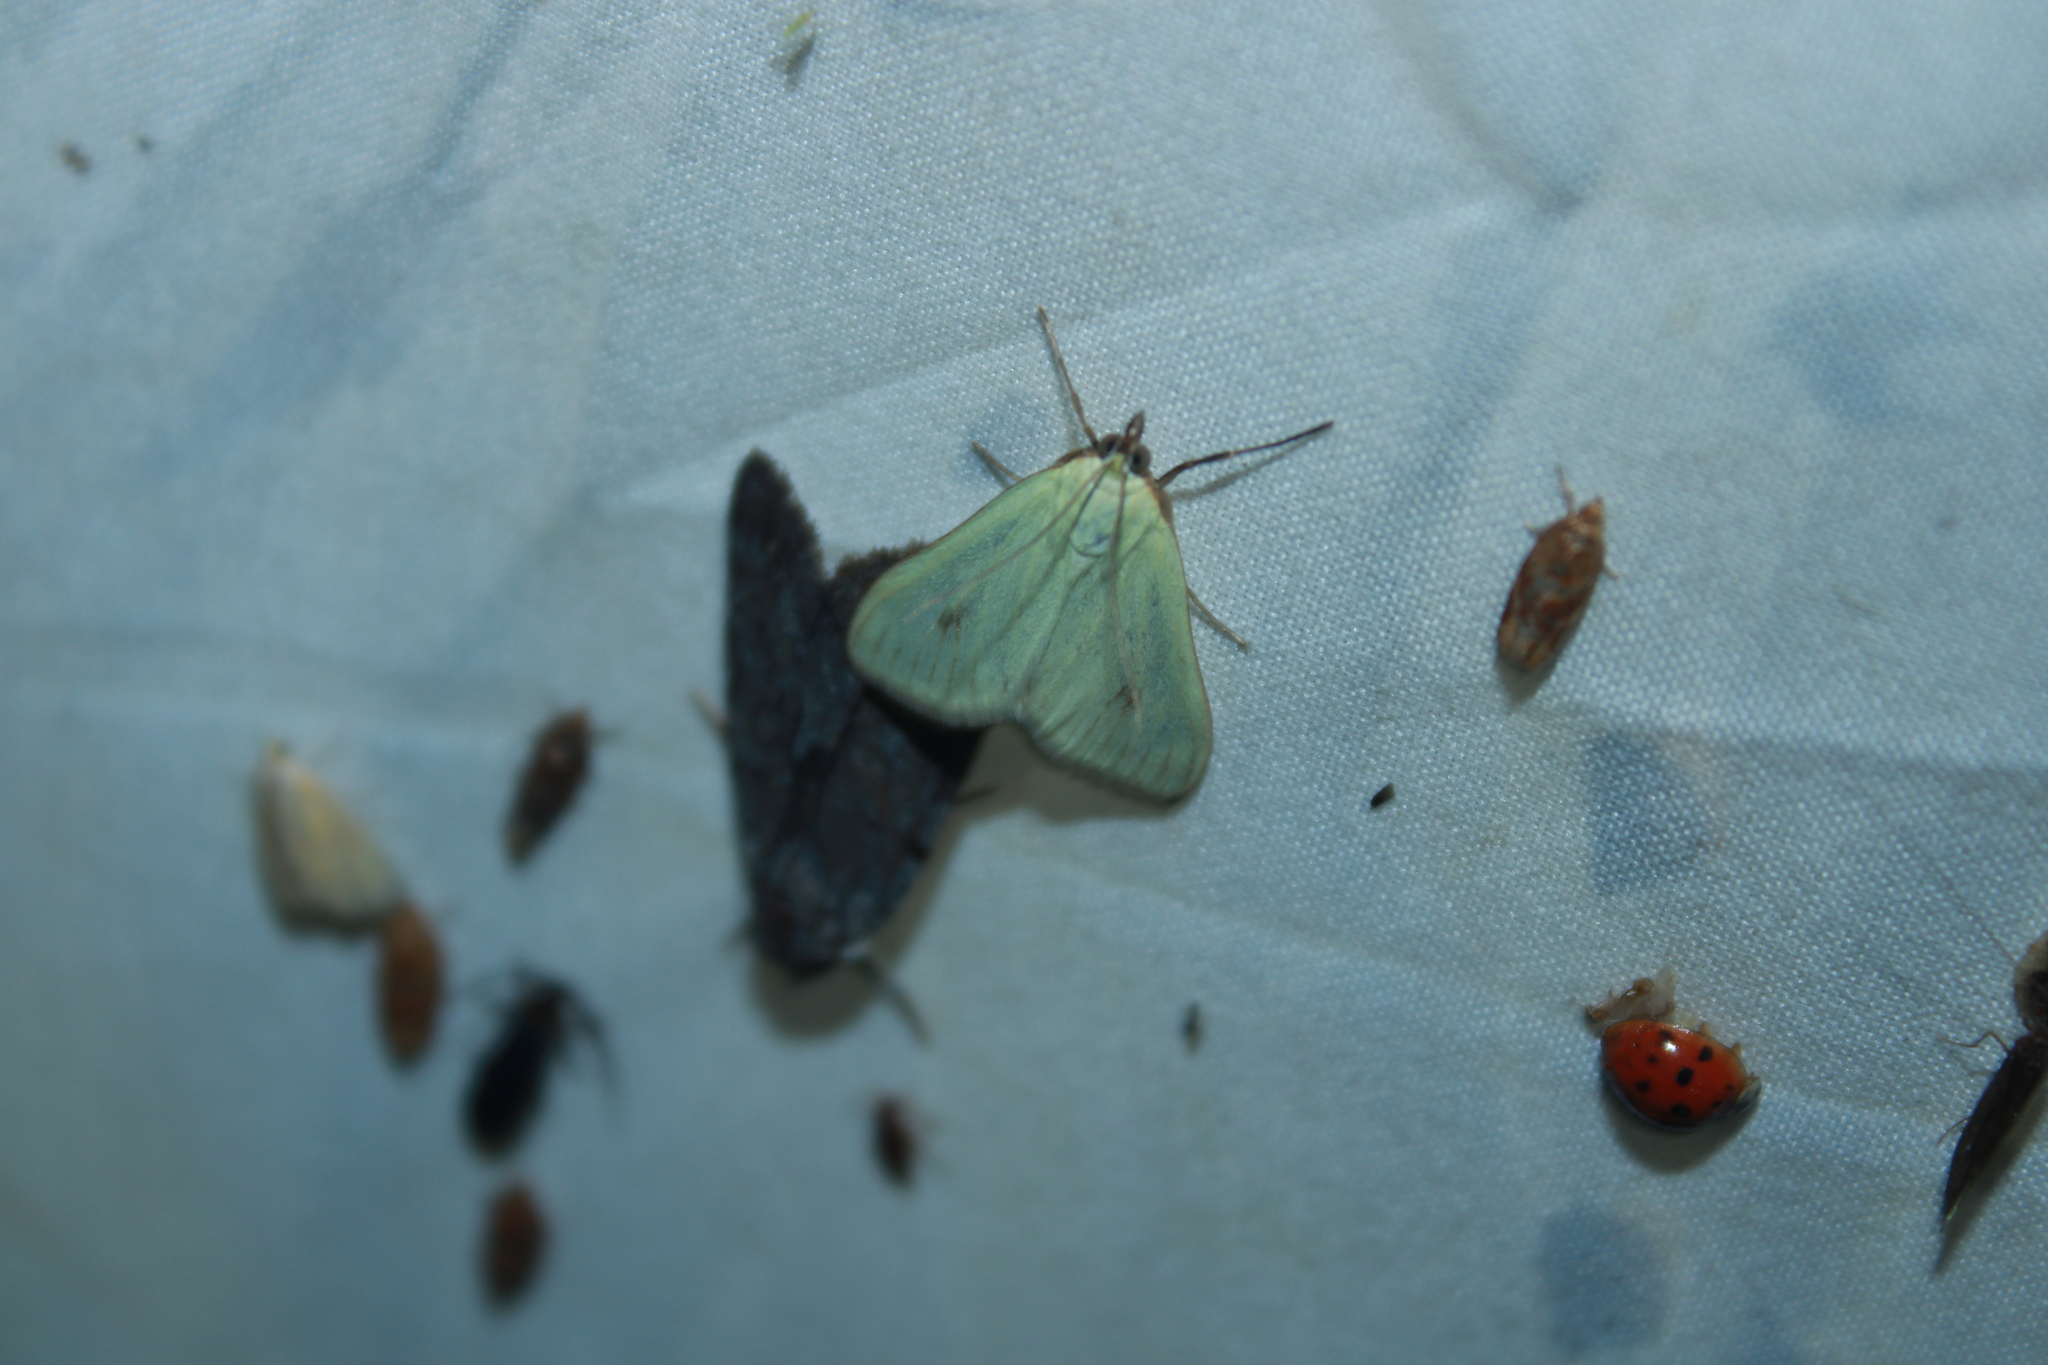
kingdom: Animalia
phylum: Arthropoda
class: Insecta
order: Lepidoptera
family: Crambidae
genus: Sitochroa
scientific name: Sitochroa palealis
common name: Greenish-yellow sitochroa moth
